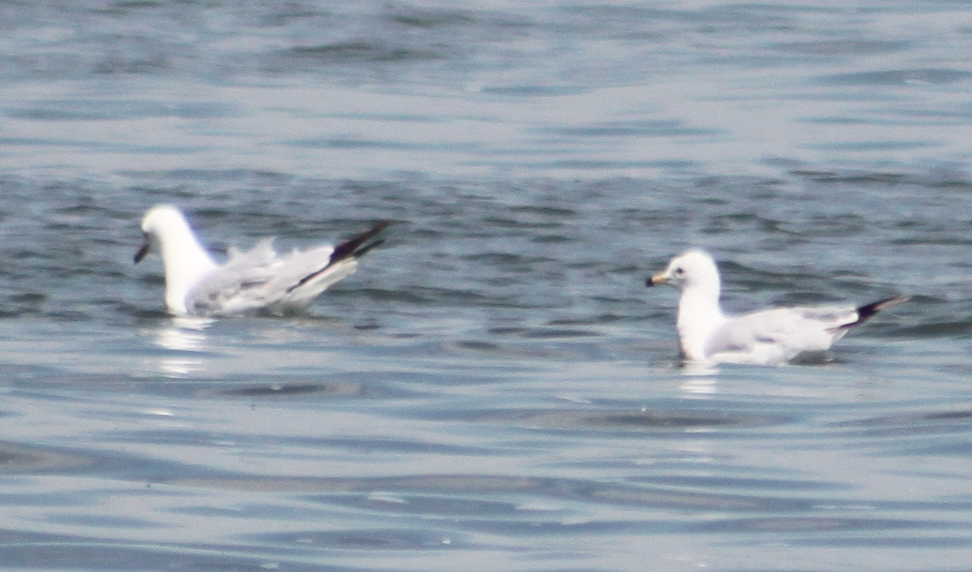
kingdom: Animalia
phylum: Chordata
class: Aves
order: Charadriiformes
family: Laridae
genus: Larus
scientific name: Larus delawarensis
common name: Ring-billed gull
